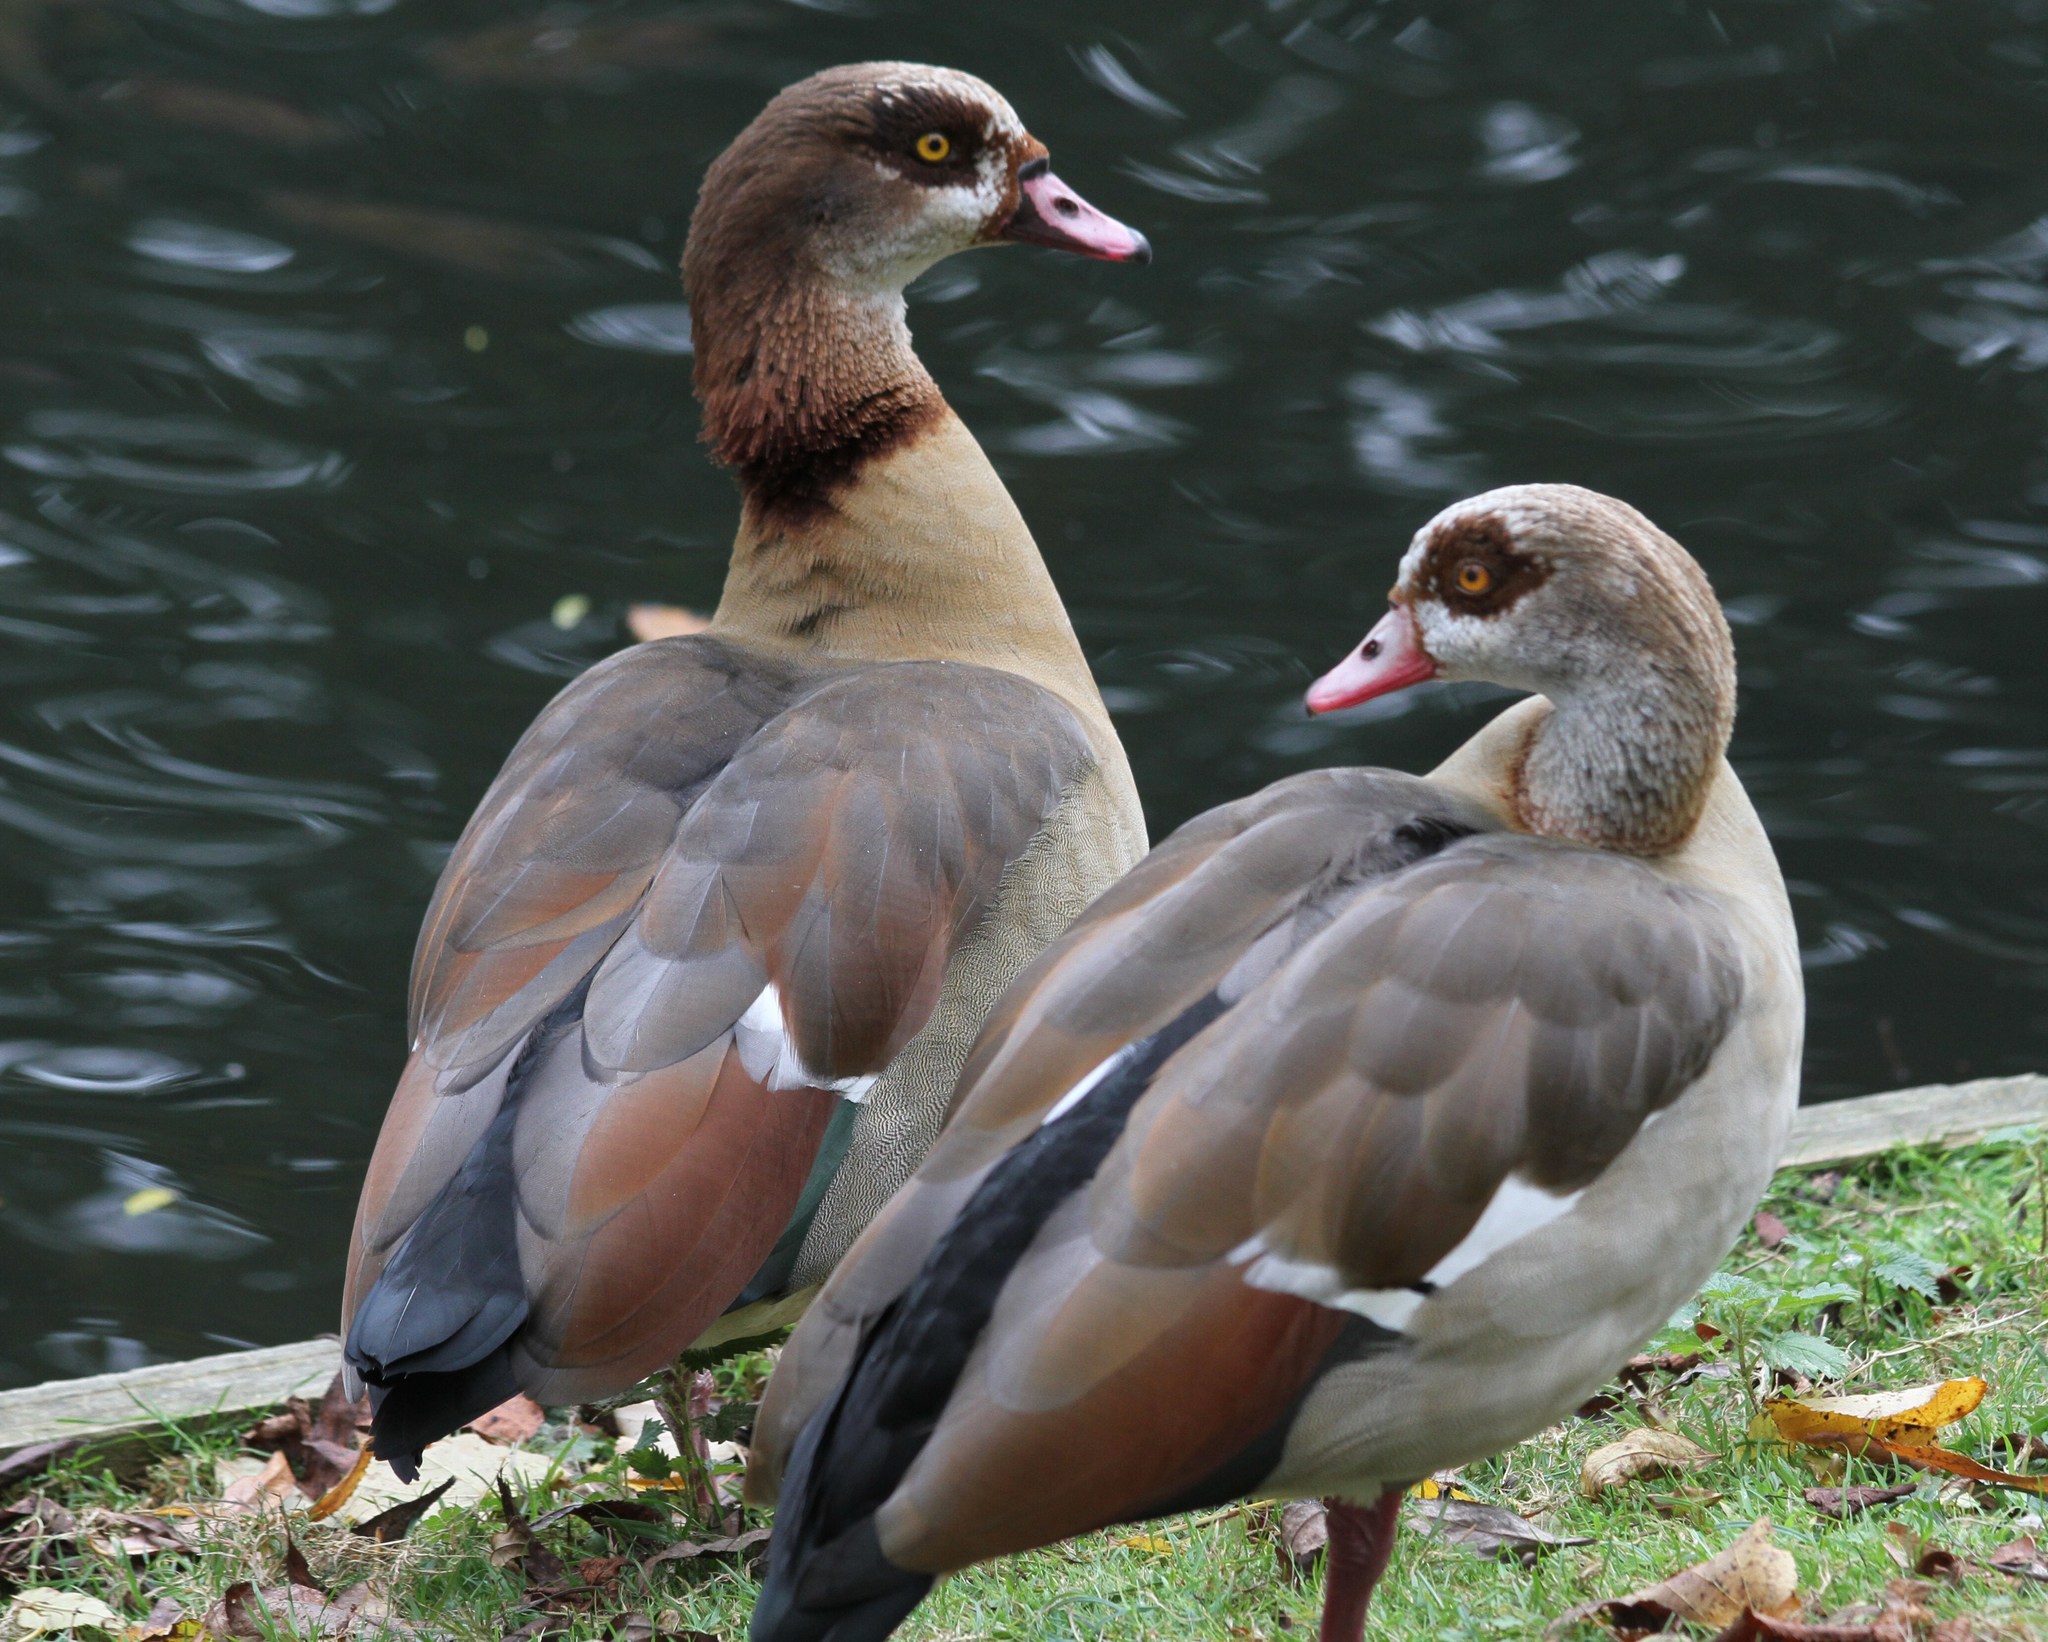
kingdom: Animalia
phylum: Chordata
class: Aves
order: Anseriformes
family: Anatidae
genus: Alopochen
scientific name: Alopochen aegyptiaca
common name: Egyptian goose
